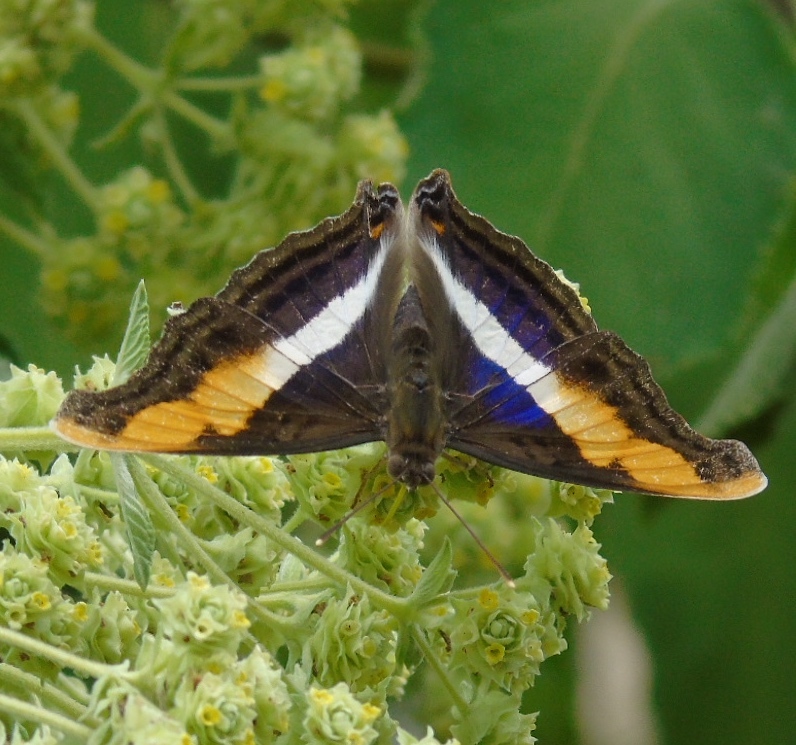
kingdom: Animalia
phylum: Arthropoda
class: Insecta
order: Lepidoptera
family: Nymphalidae
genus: Doxocopa
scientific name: Doxocopa laure
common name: Silver emperor
